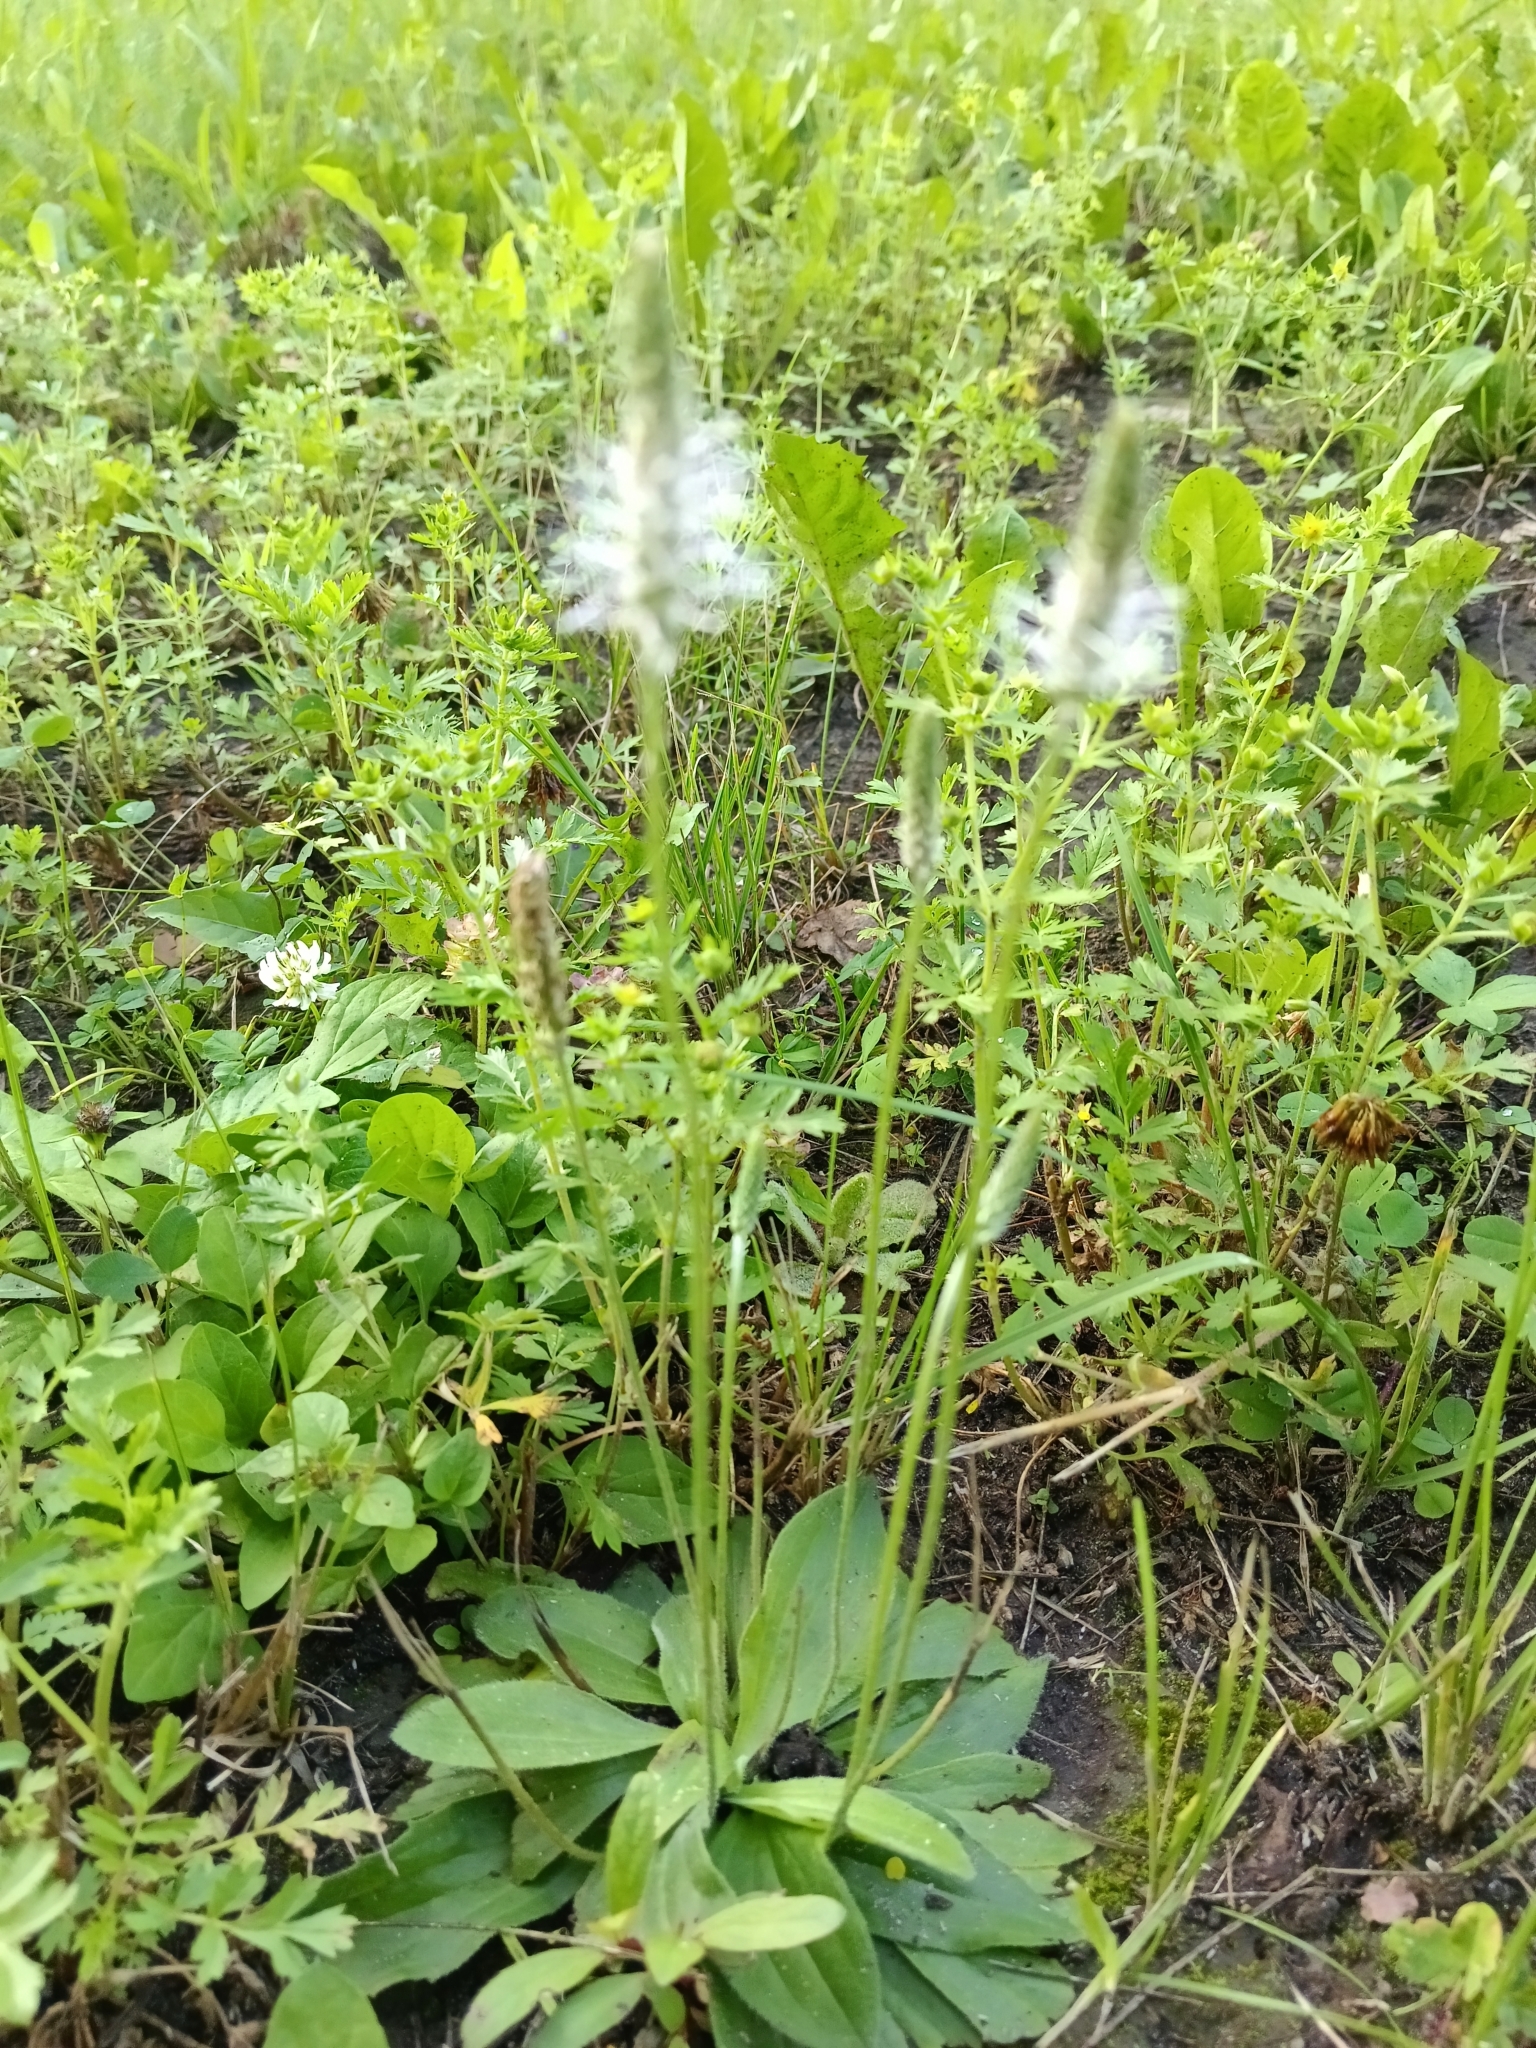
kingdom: Plantae
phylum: Tracheophyta
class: Magnoliopsida
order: Lamiales
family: Plantaginaceae
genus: Plantago
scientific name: Plantago media
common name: Hoary plantain
